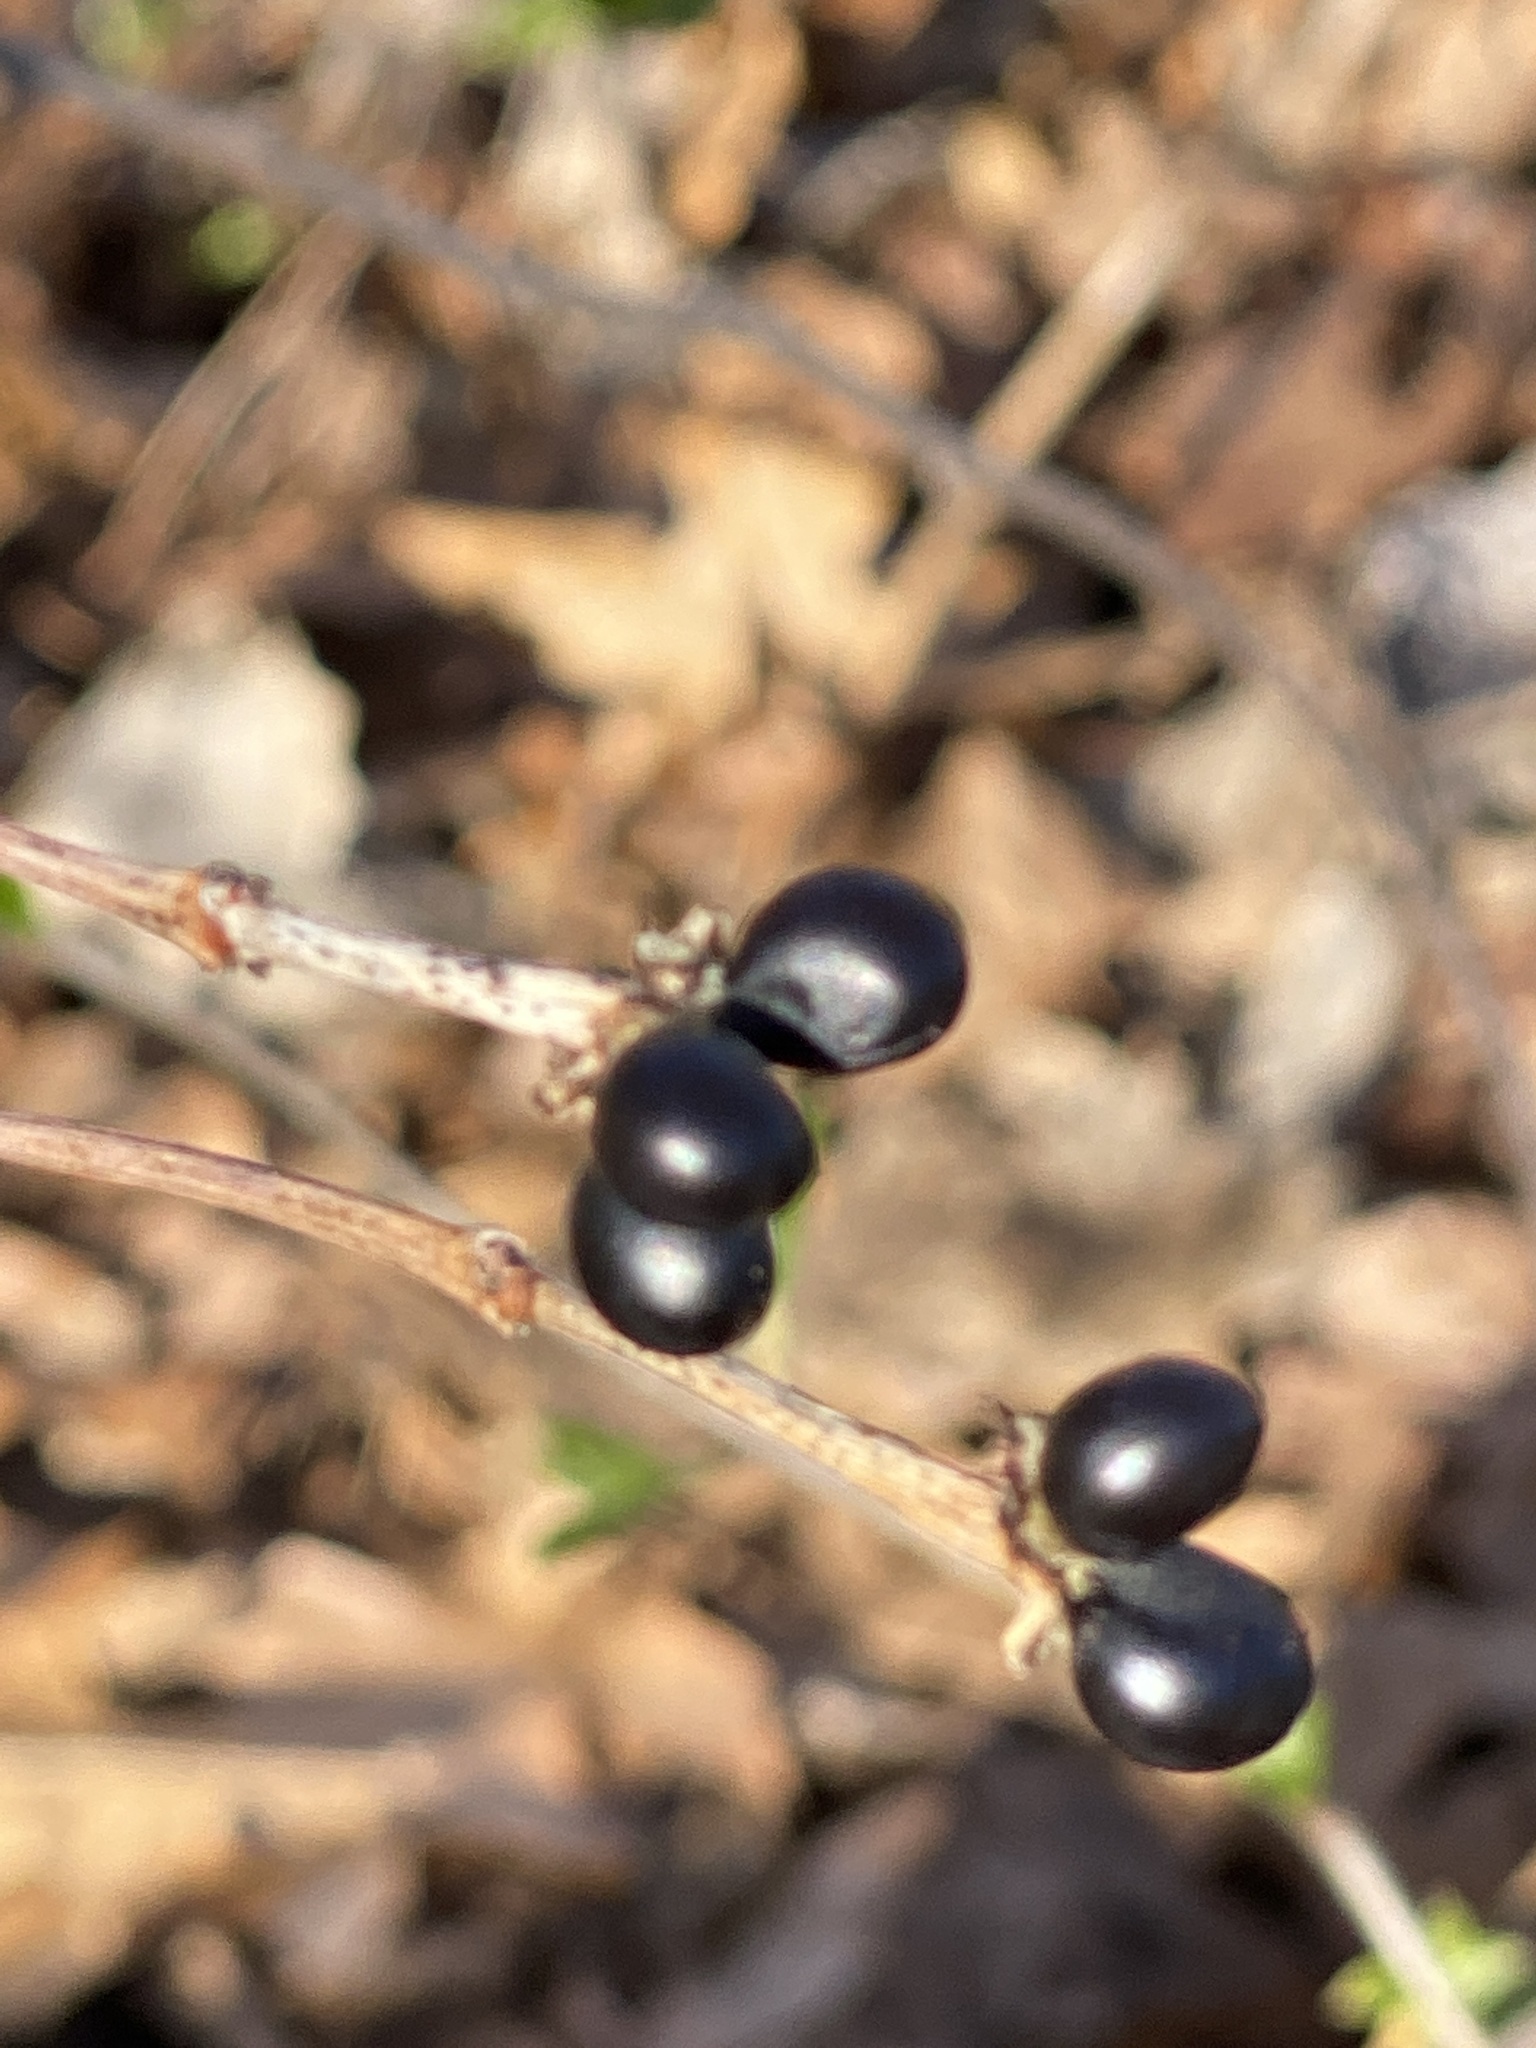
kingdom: Plantae
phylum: Tracheophyta
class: Magnoliopsida
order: Rosales
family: Rosaceae
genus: Rhodotypos
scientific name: Rhodotypos scandens
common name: Jetbead
